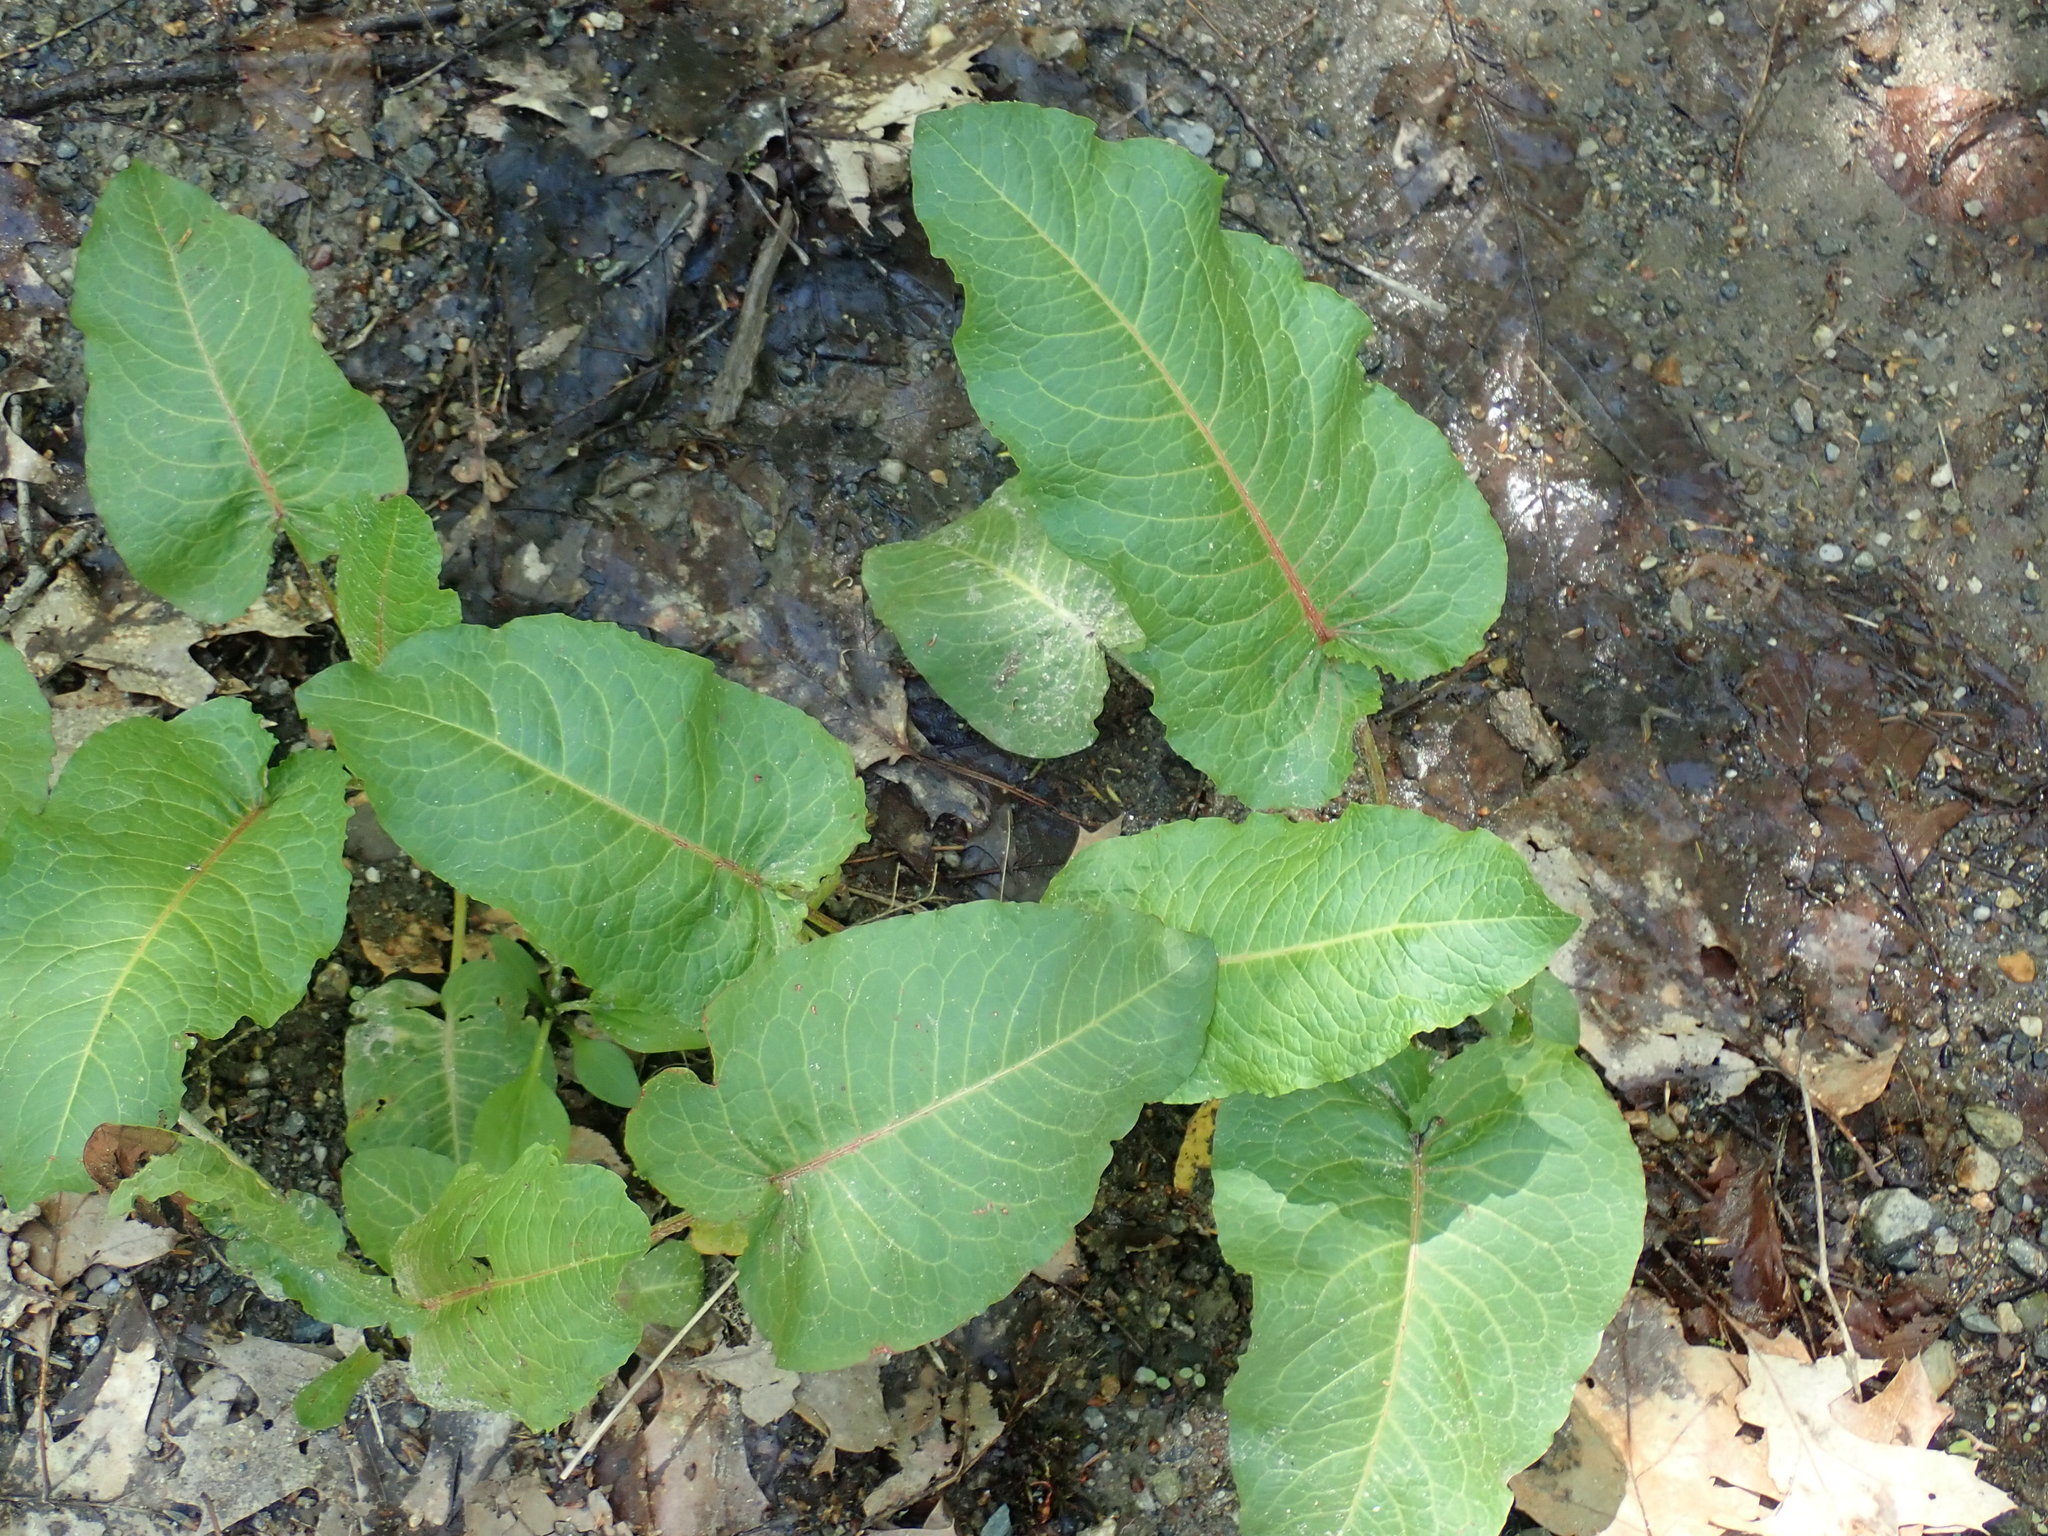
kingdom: Plantae
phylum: Tracheophyta
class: Magnoliopsida
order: Caryophyllales
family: Polygonaceae
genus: Rumex
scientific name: Rumex obtusifolius
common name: Bitter dock
